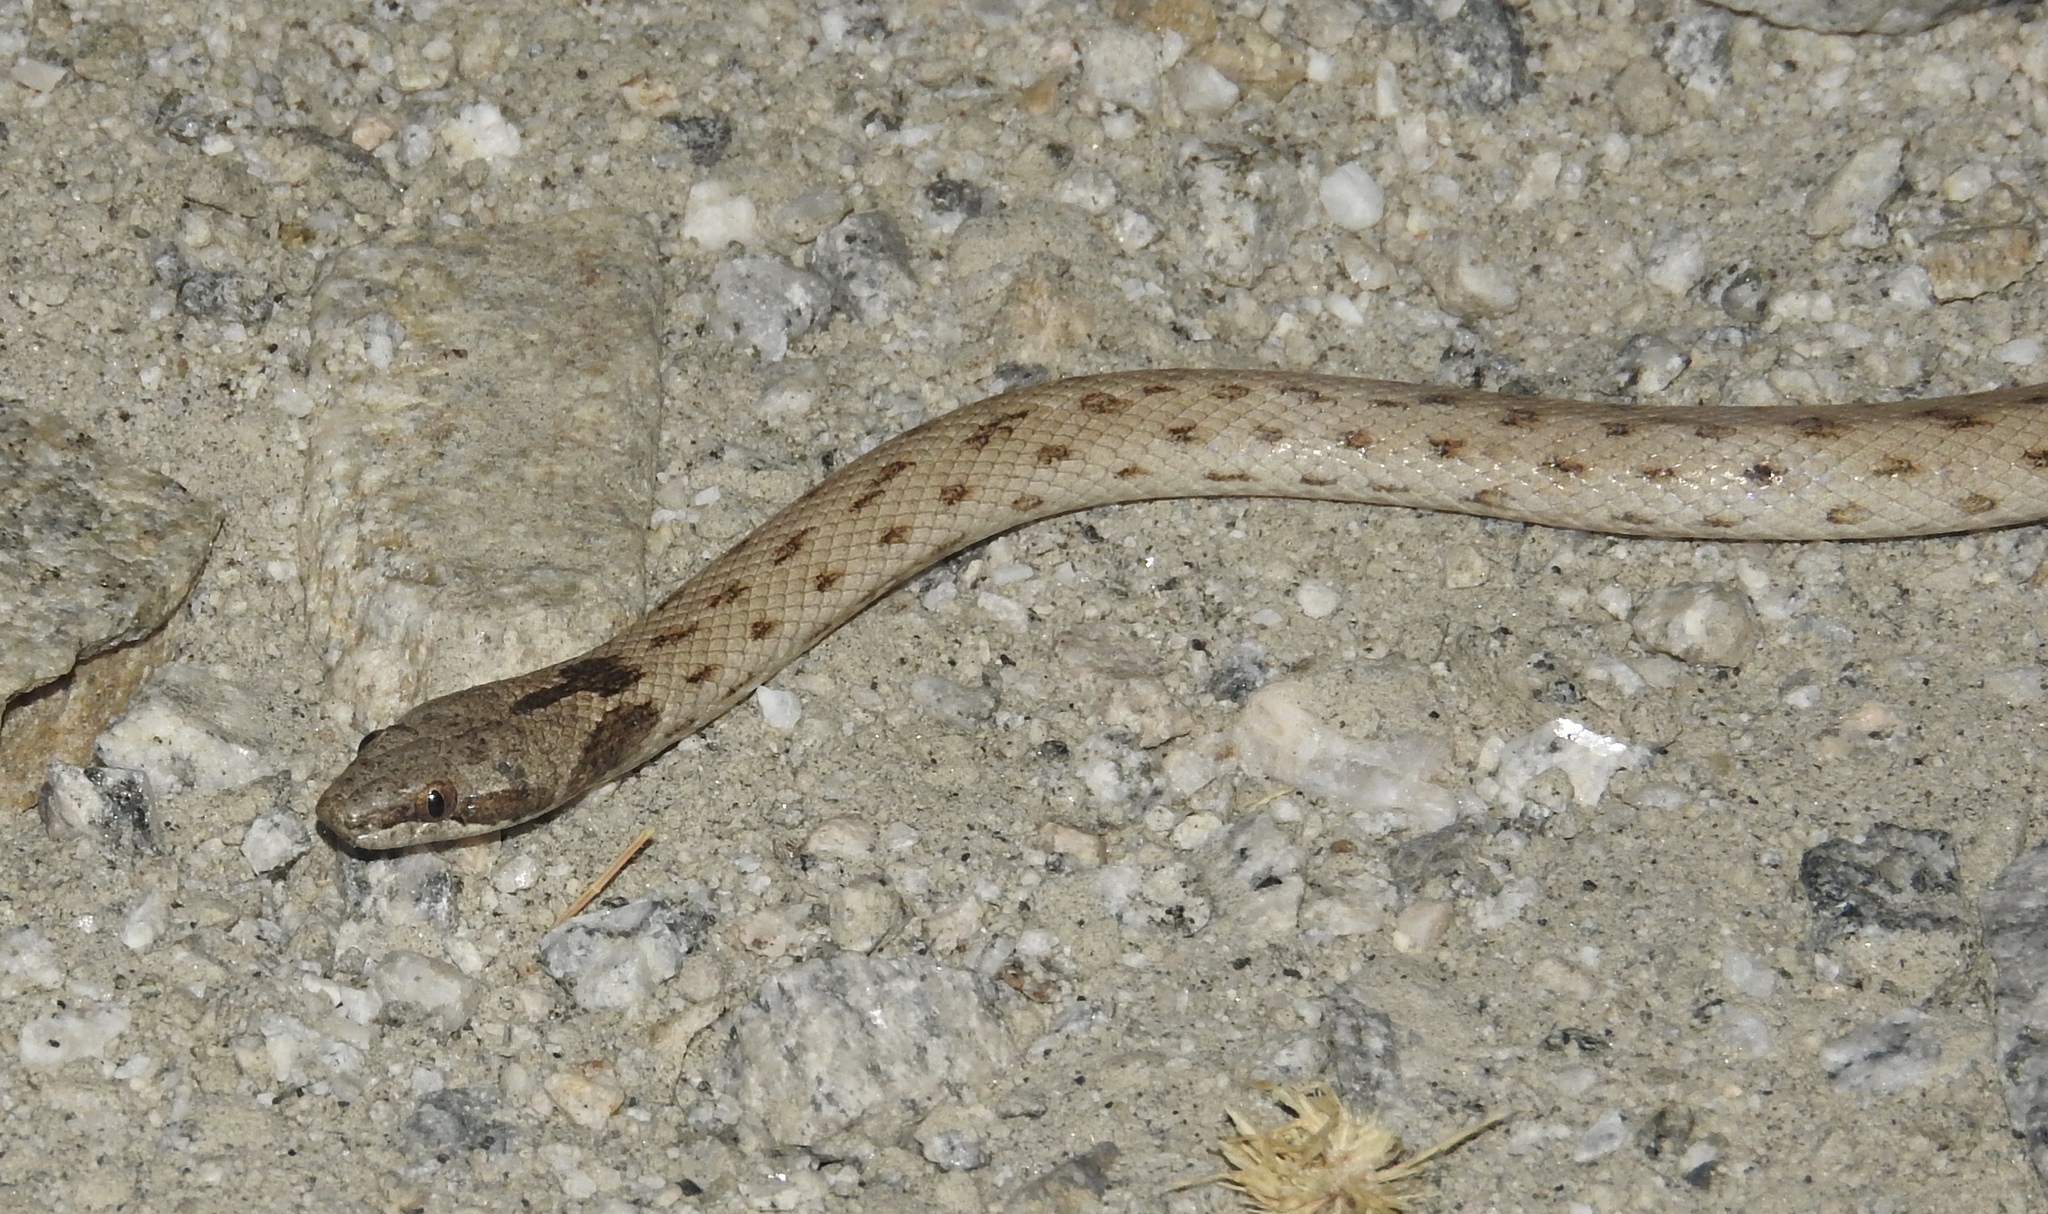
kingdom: Animalia
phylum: Chordata
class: Squamata
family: Colubridae
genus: Hypsiglena
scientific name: Hypsiglena chlorophaea
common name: Desert nightsnake
